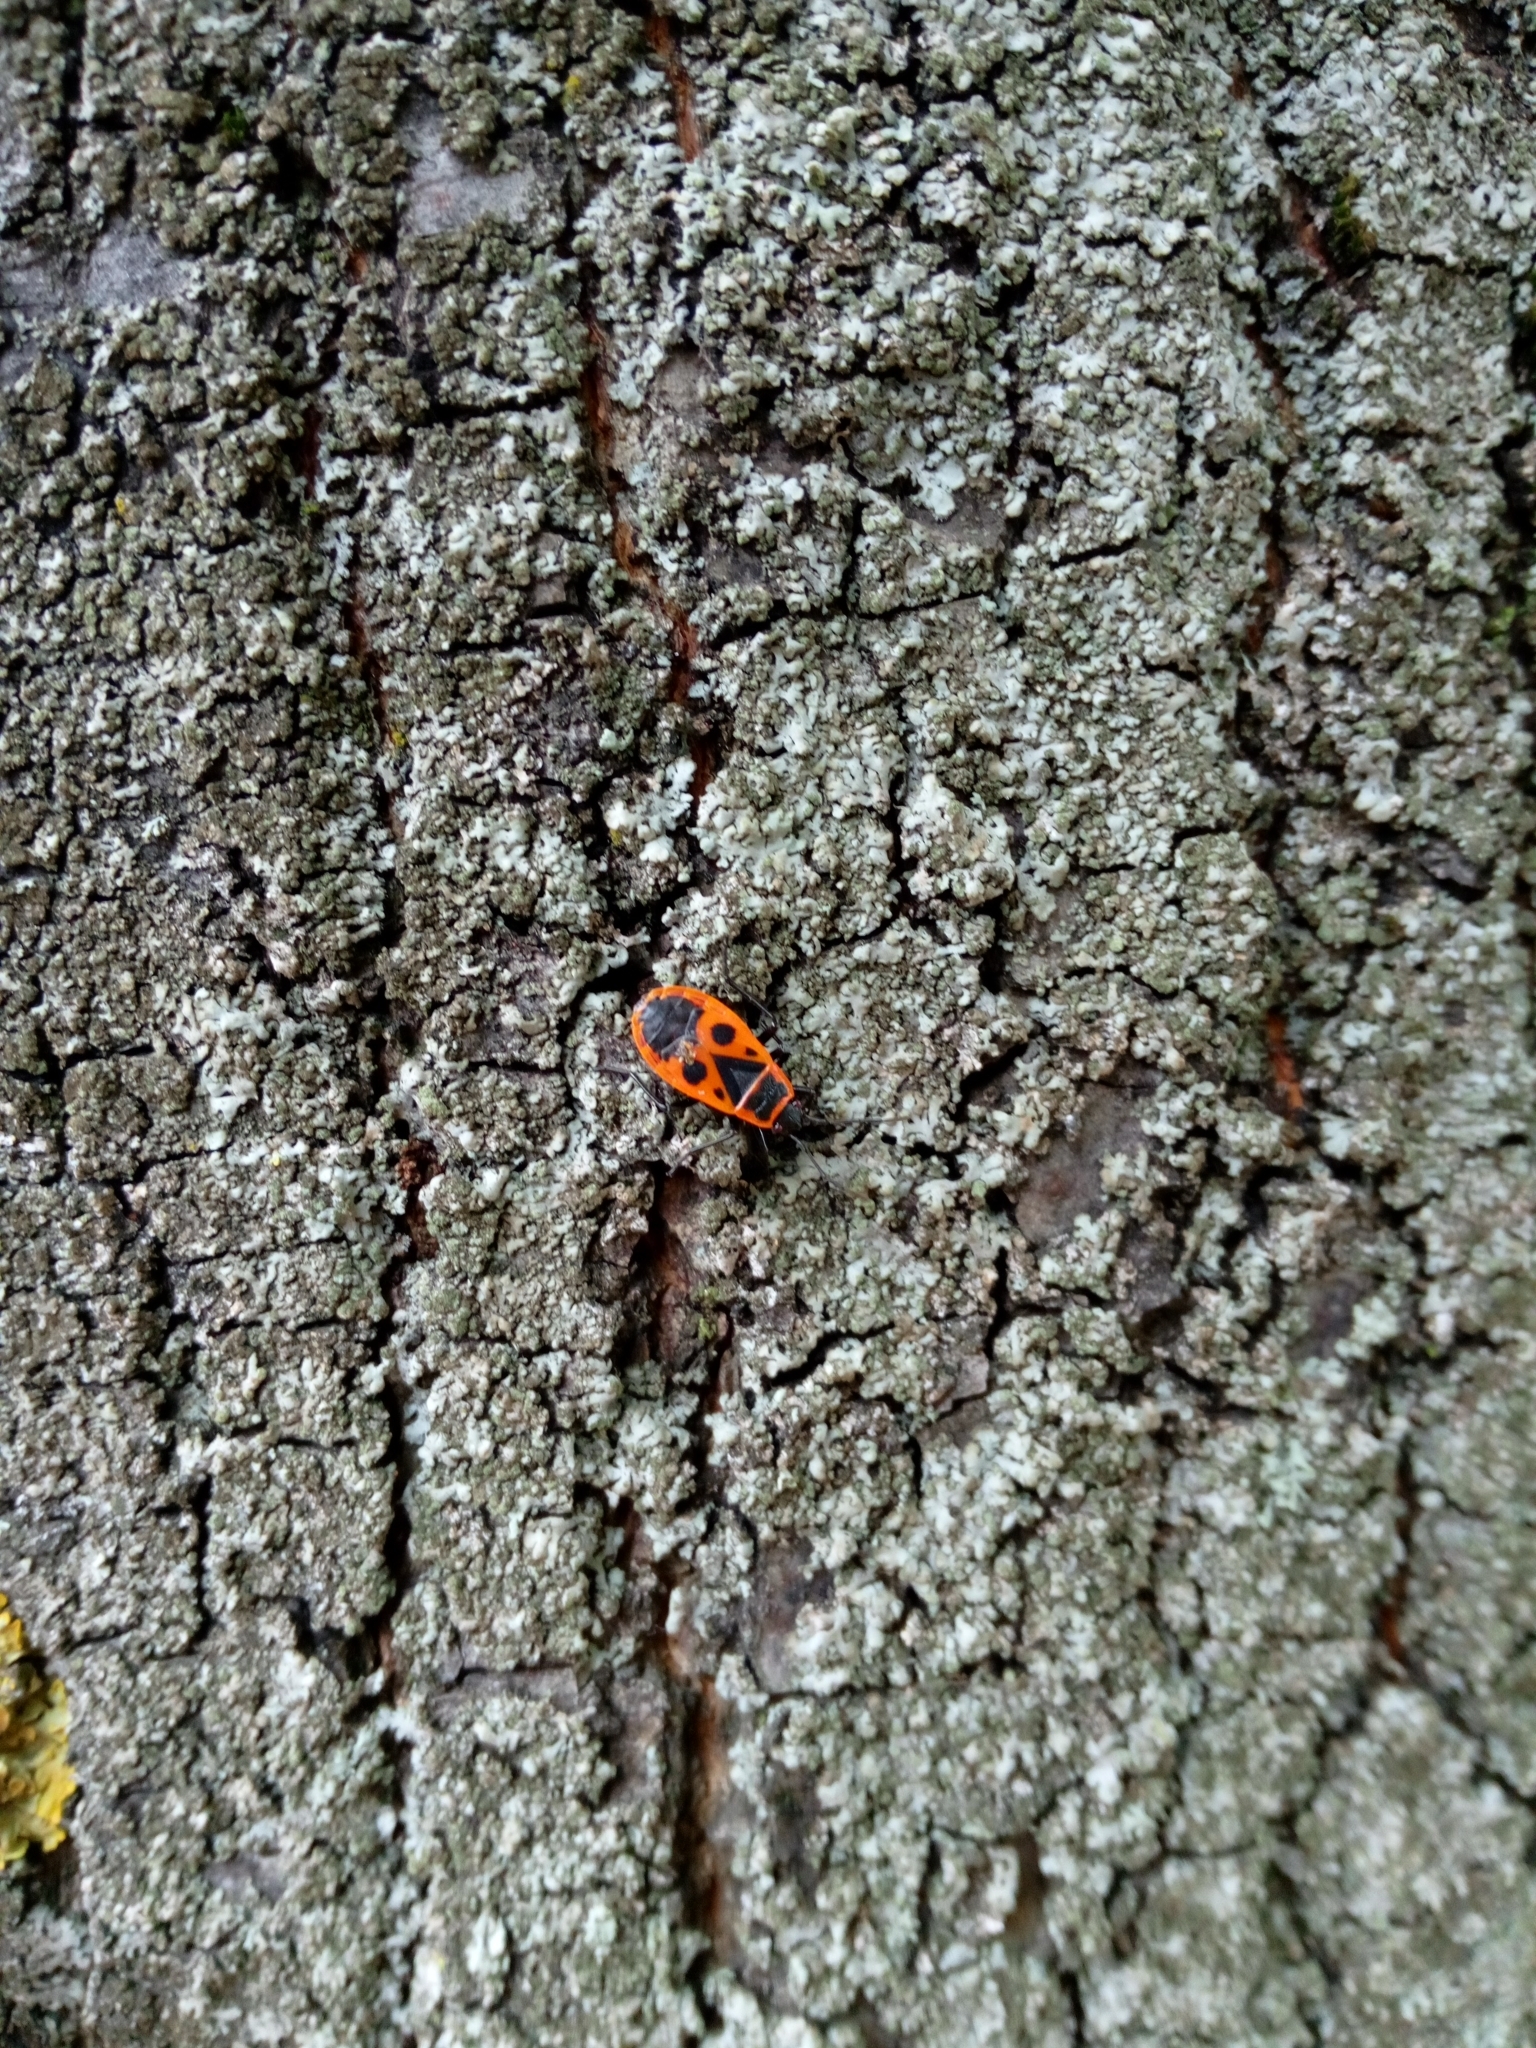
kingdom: Animalia
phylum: Arthropoda
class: Insecta
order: Hemiptera
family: Pyrrhocoridae
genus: Pyrrhocoris
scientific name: Pyrrhocoris apterus
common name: Firebug
